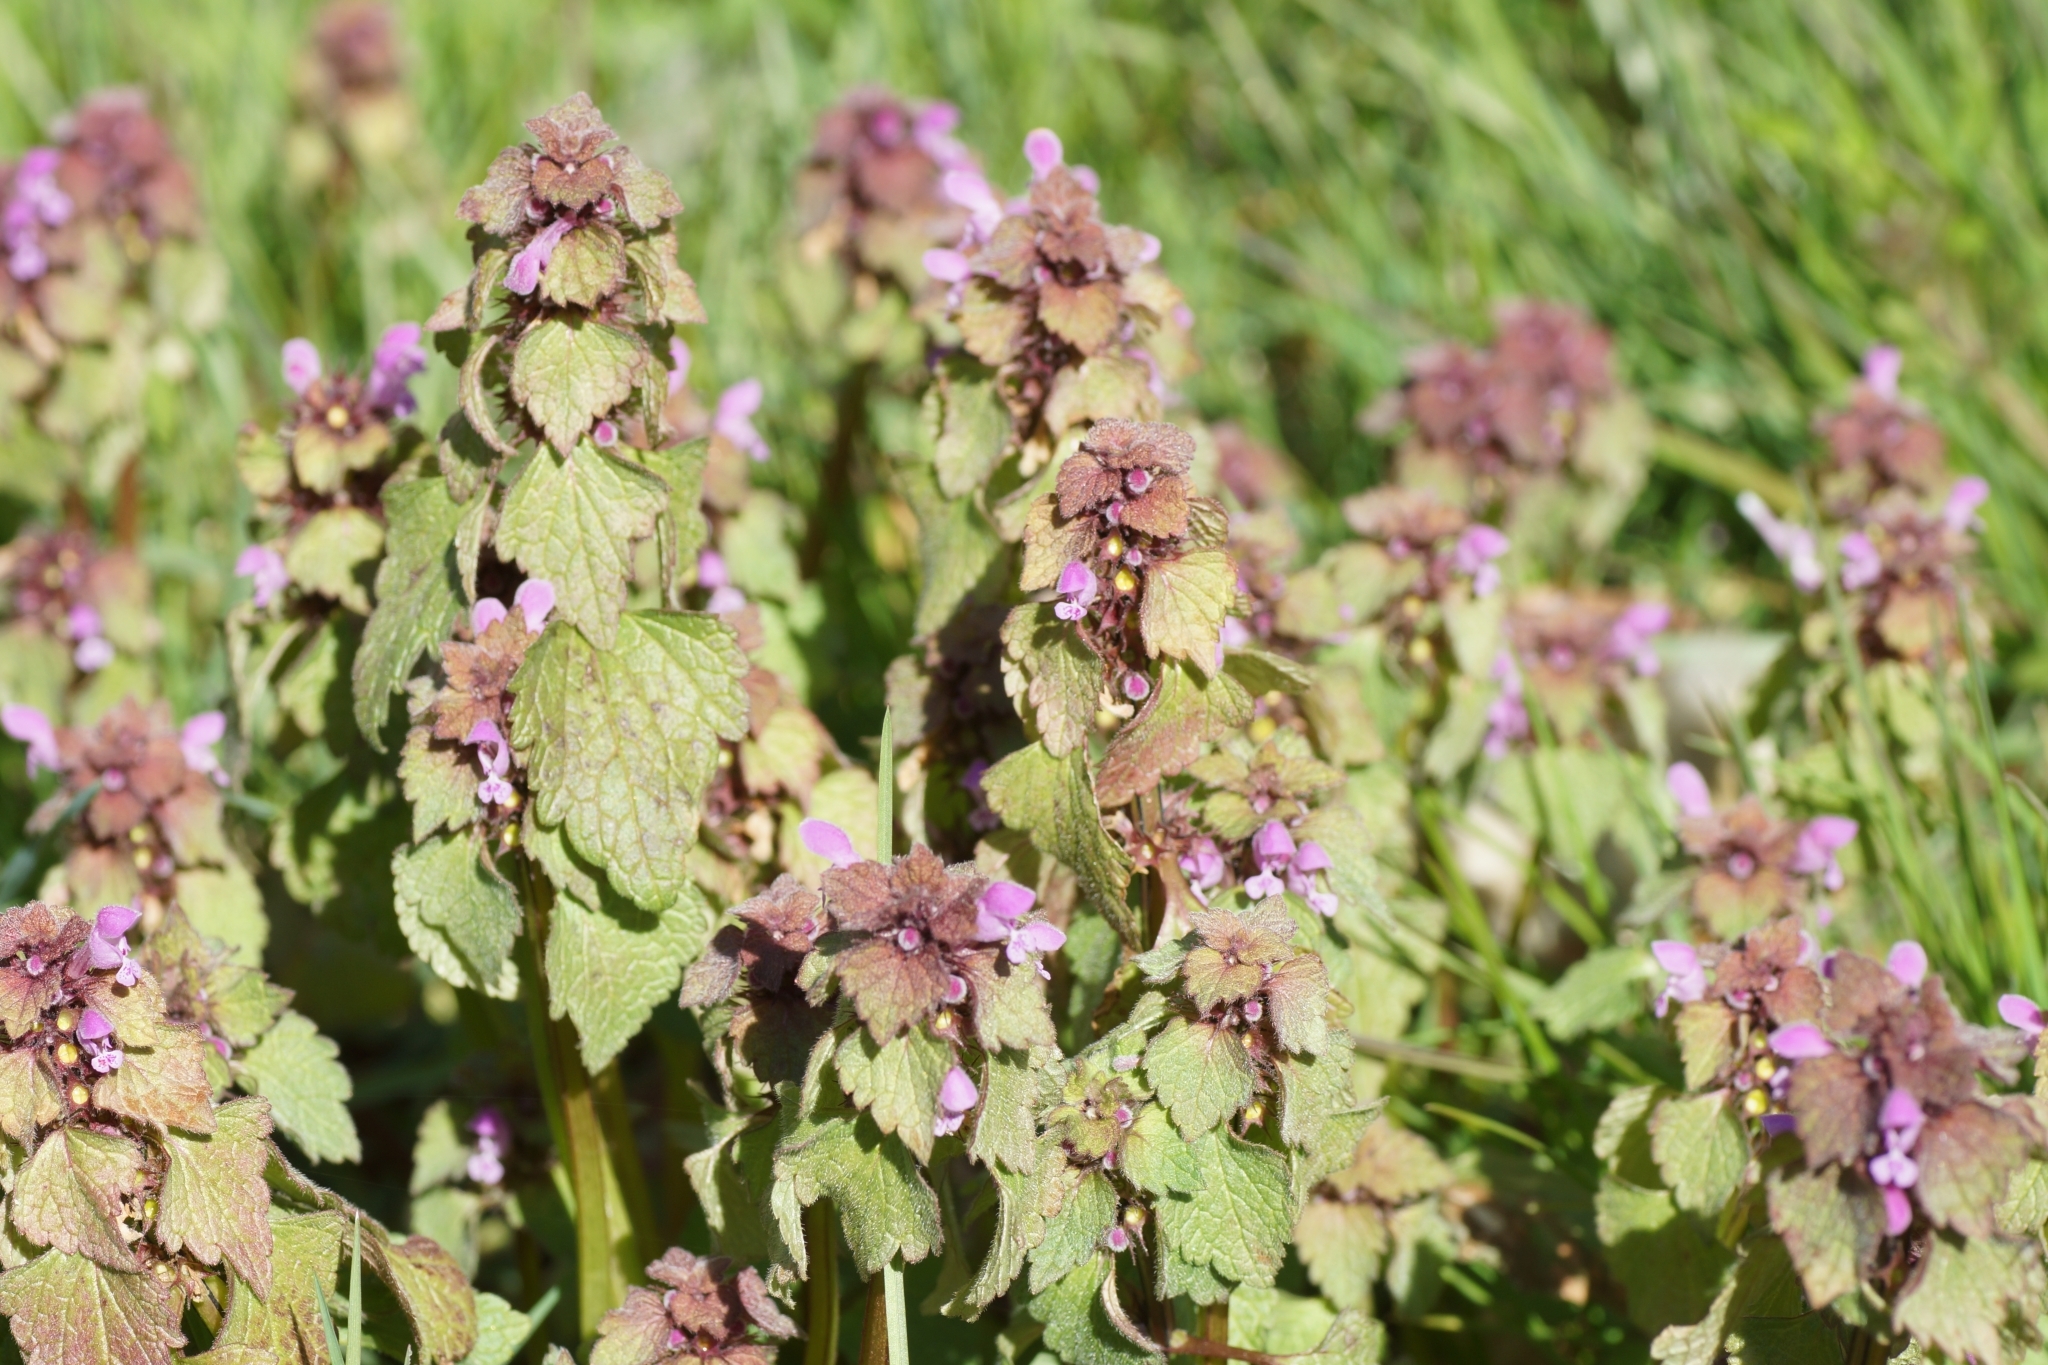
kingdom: Plantae
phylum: Tracheophyta
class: Magnoliopsida
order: Lamiales
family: Lamiaceae
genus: Lamium
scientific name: Lamium purpureum
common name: Red dead-nettle
